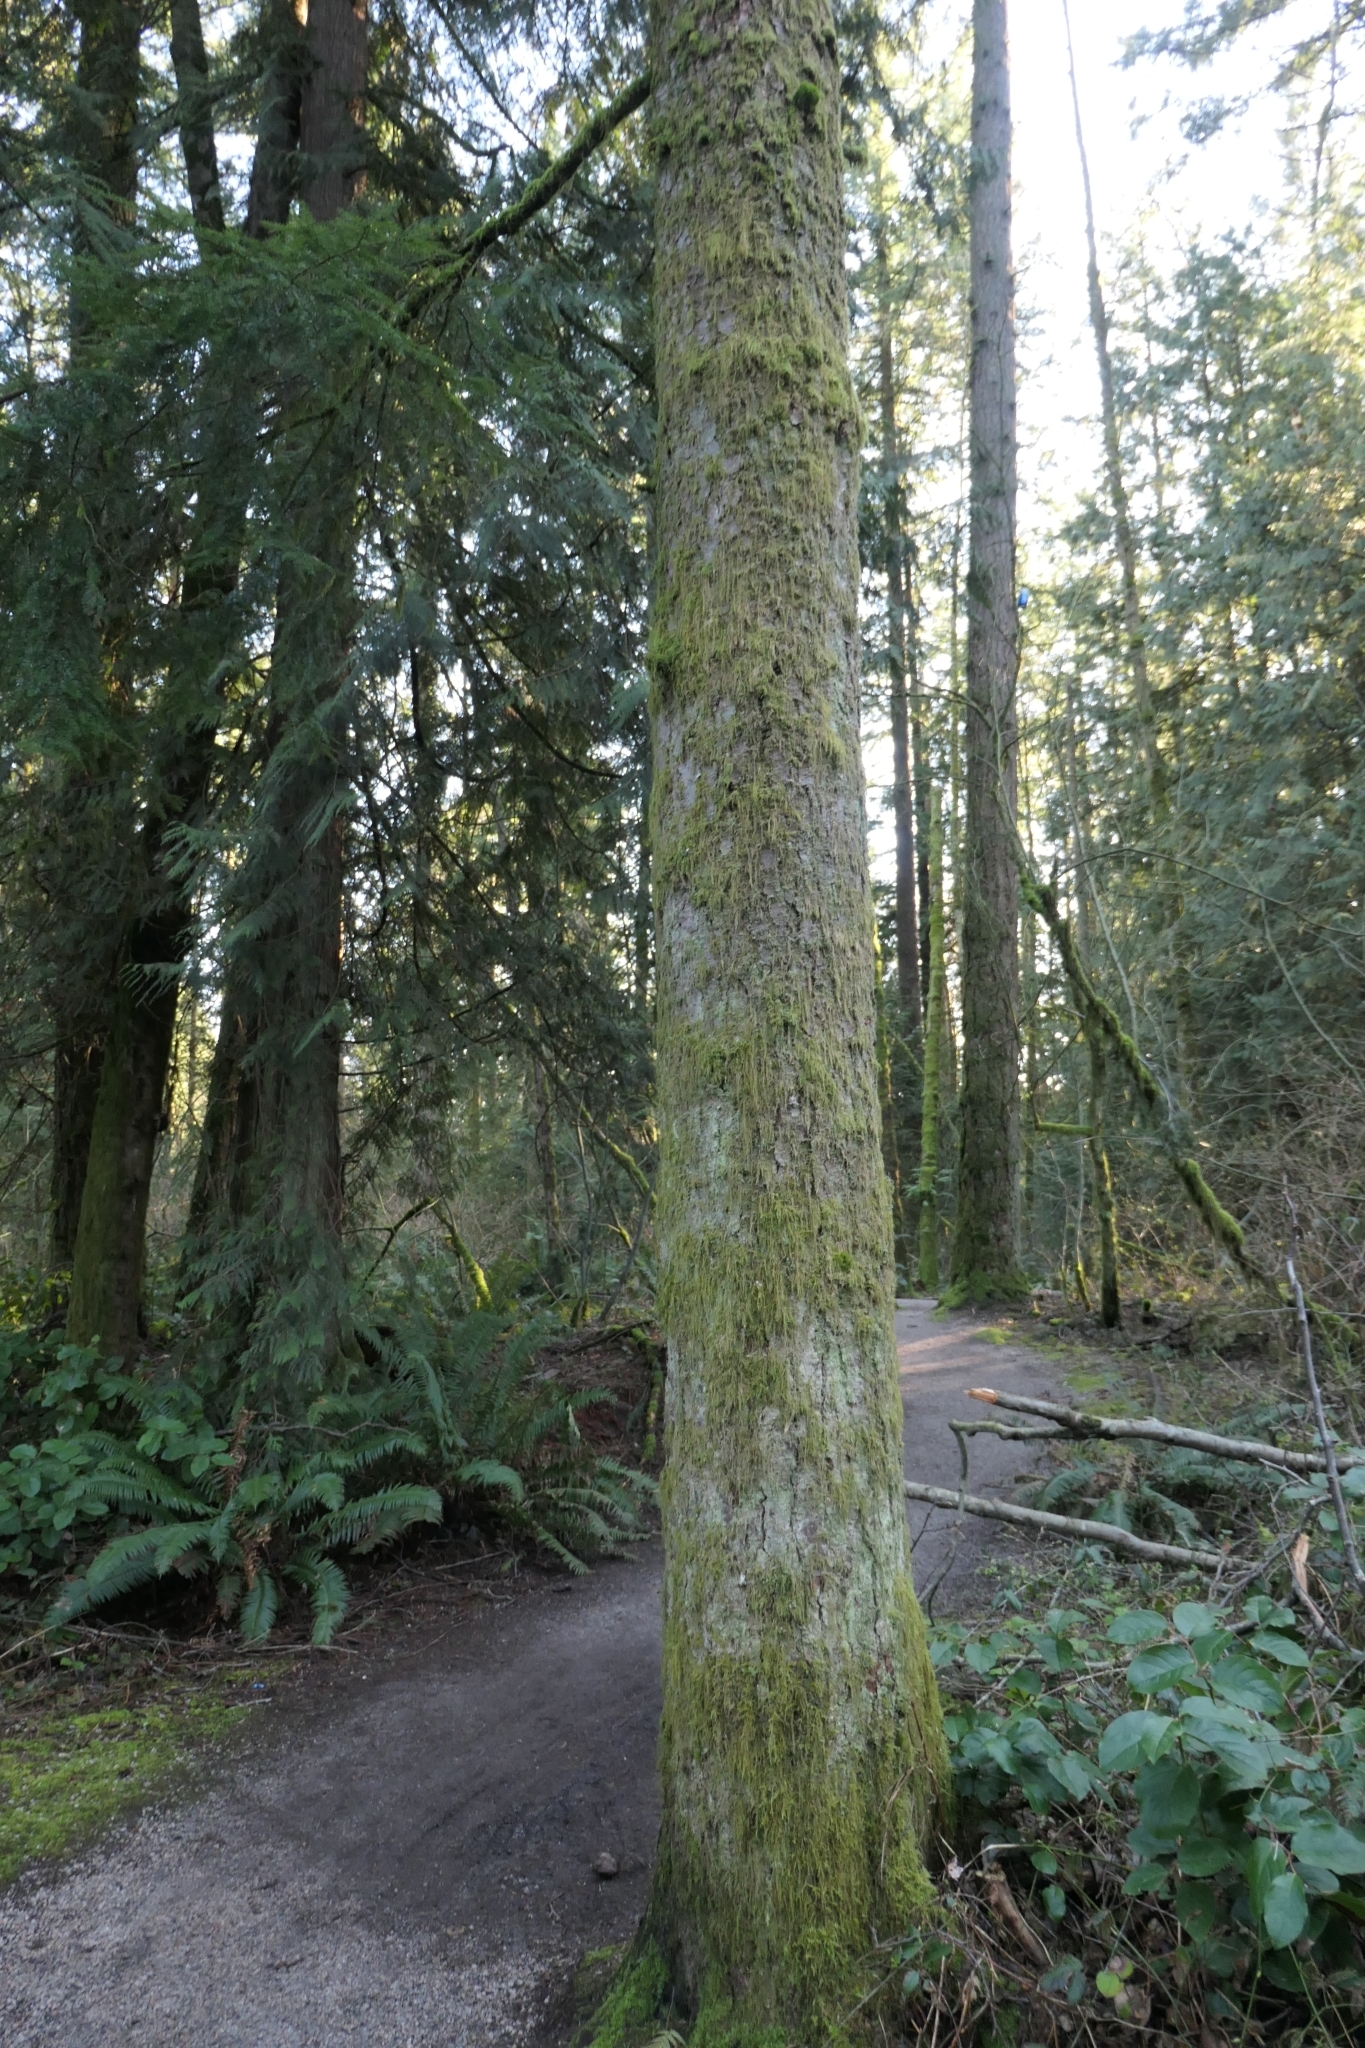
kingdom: Plantae
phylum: Bryophyta
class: Bryopsida
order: Hypnales
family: Lembophyllaceae
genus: Pseudisothecium
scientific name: Pseudisothecium stoloniferum
